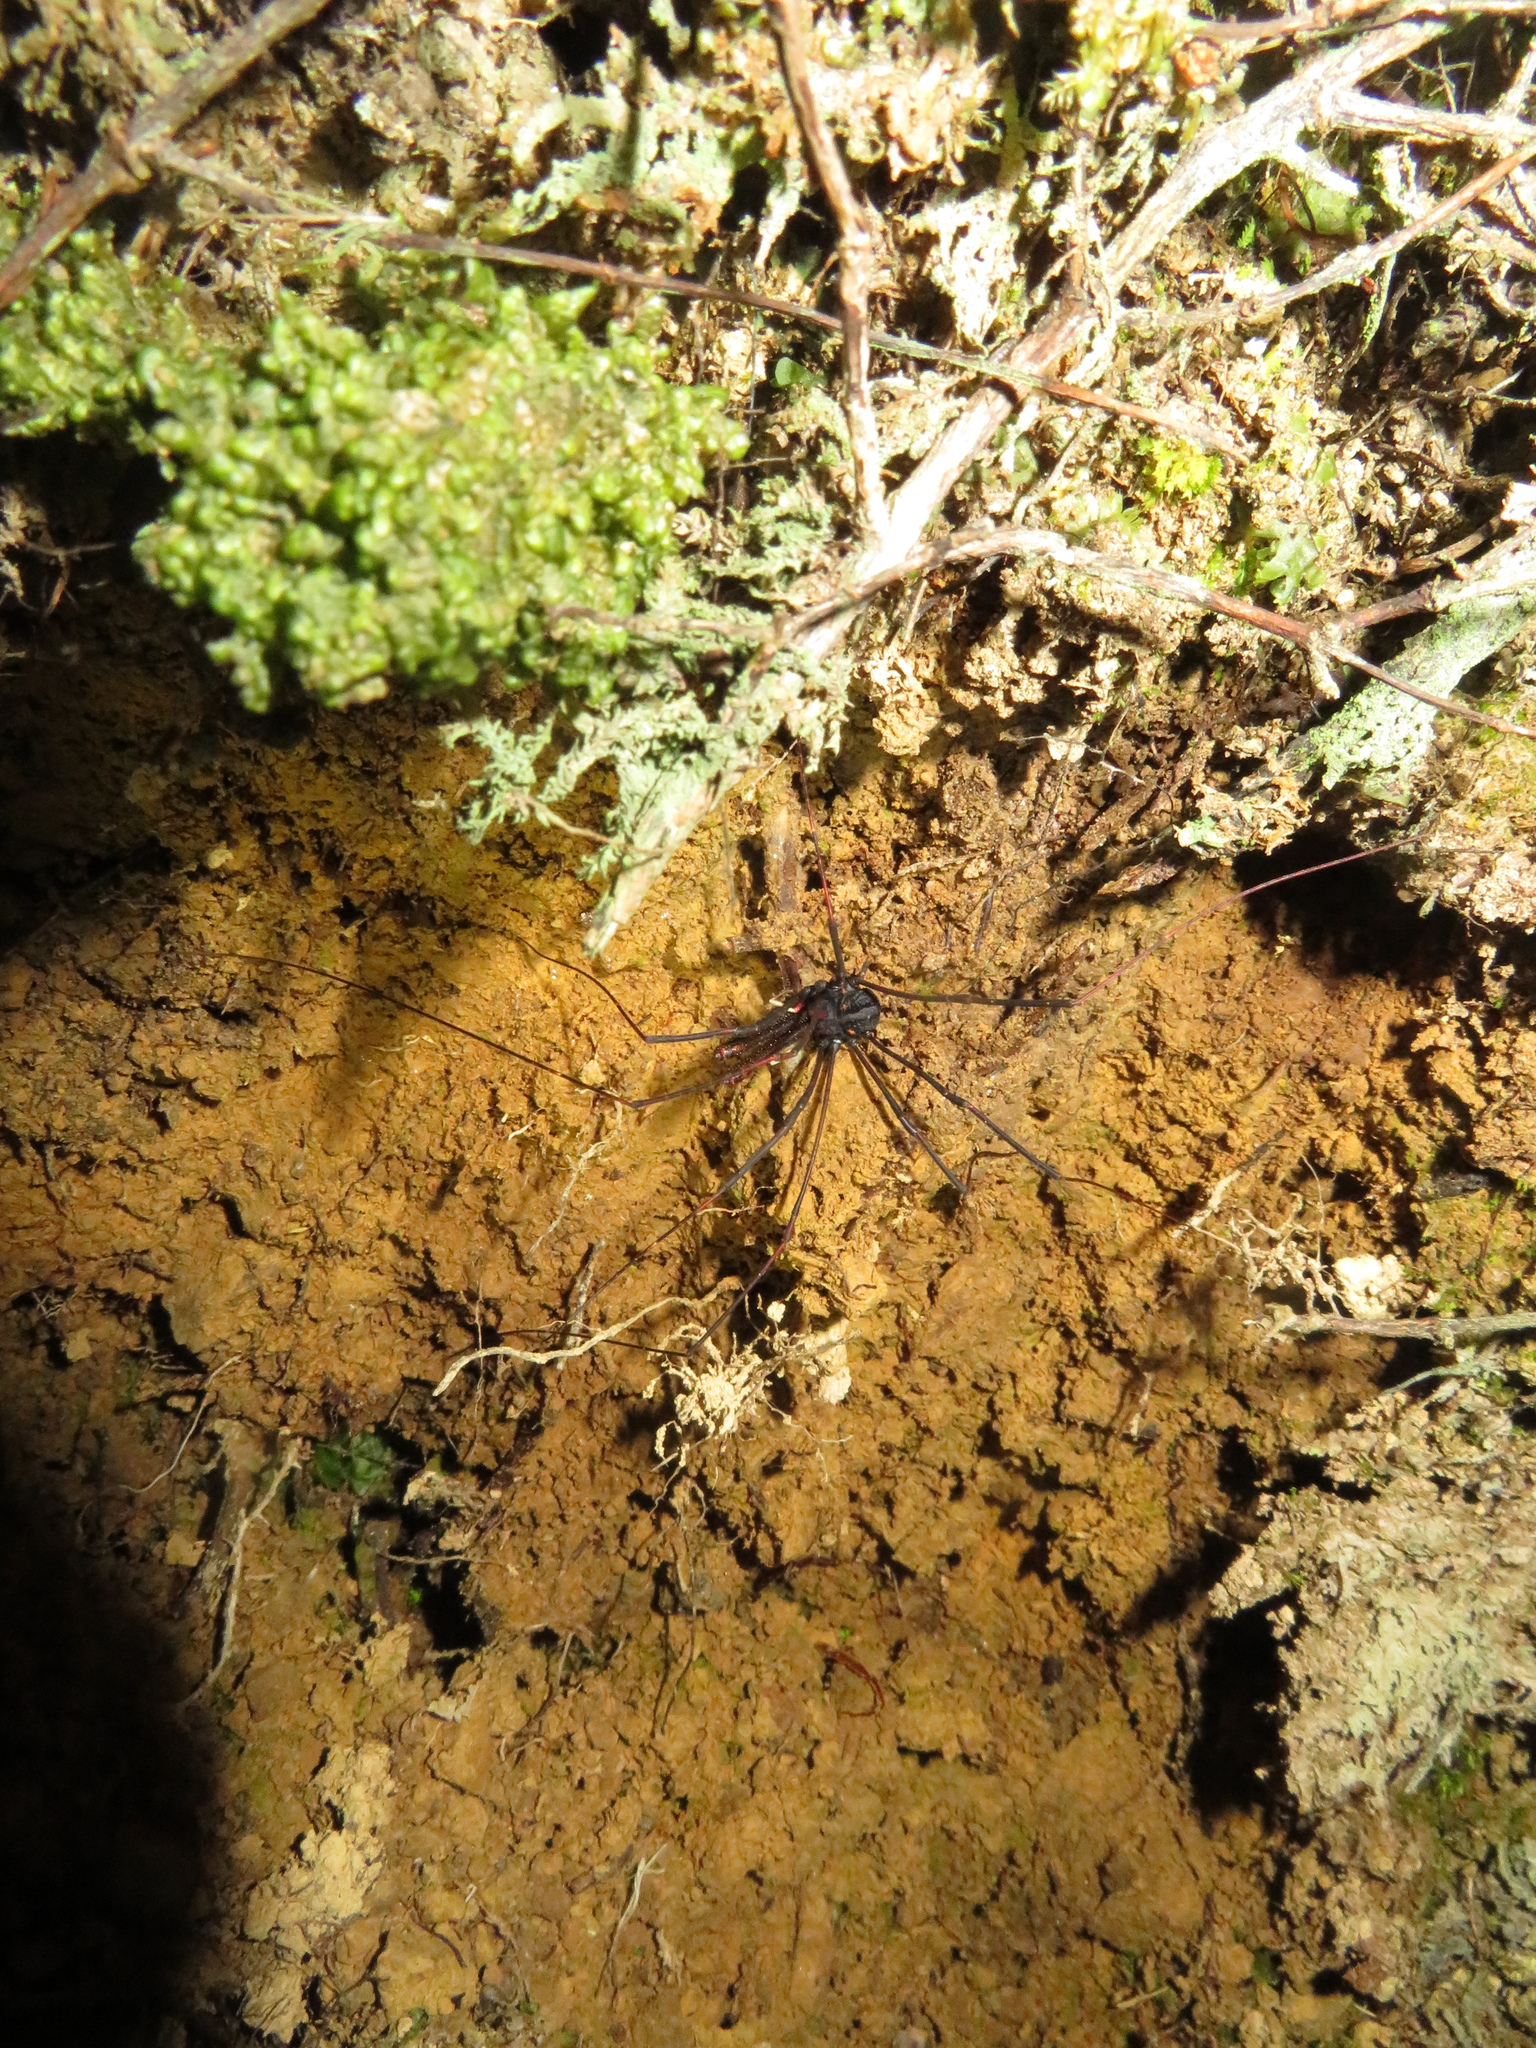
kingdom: Animalia
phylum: Arthropoda
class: Arachnida
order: Opiliones
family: Neopilionidae
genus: Forsteropsalis
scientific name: Forsteropsalis inconstans
